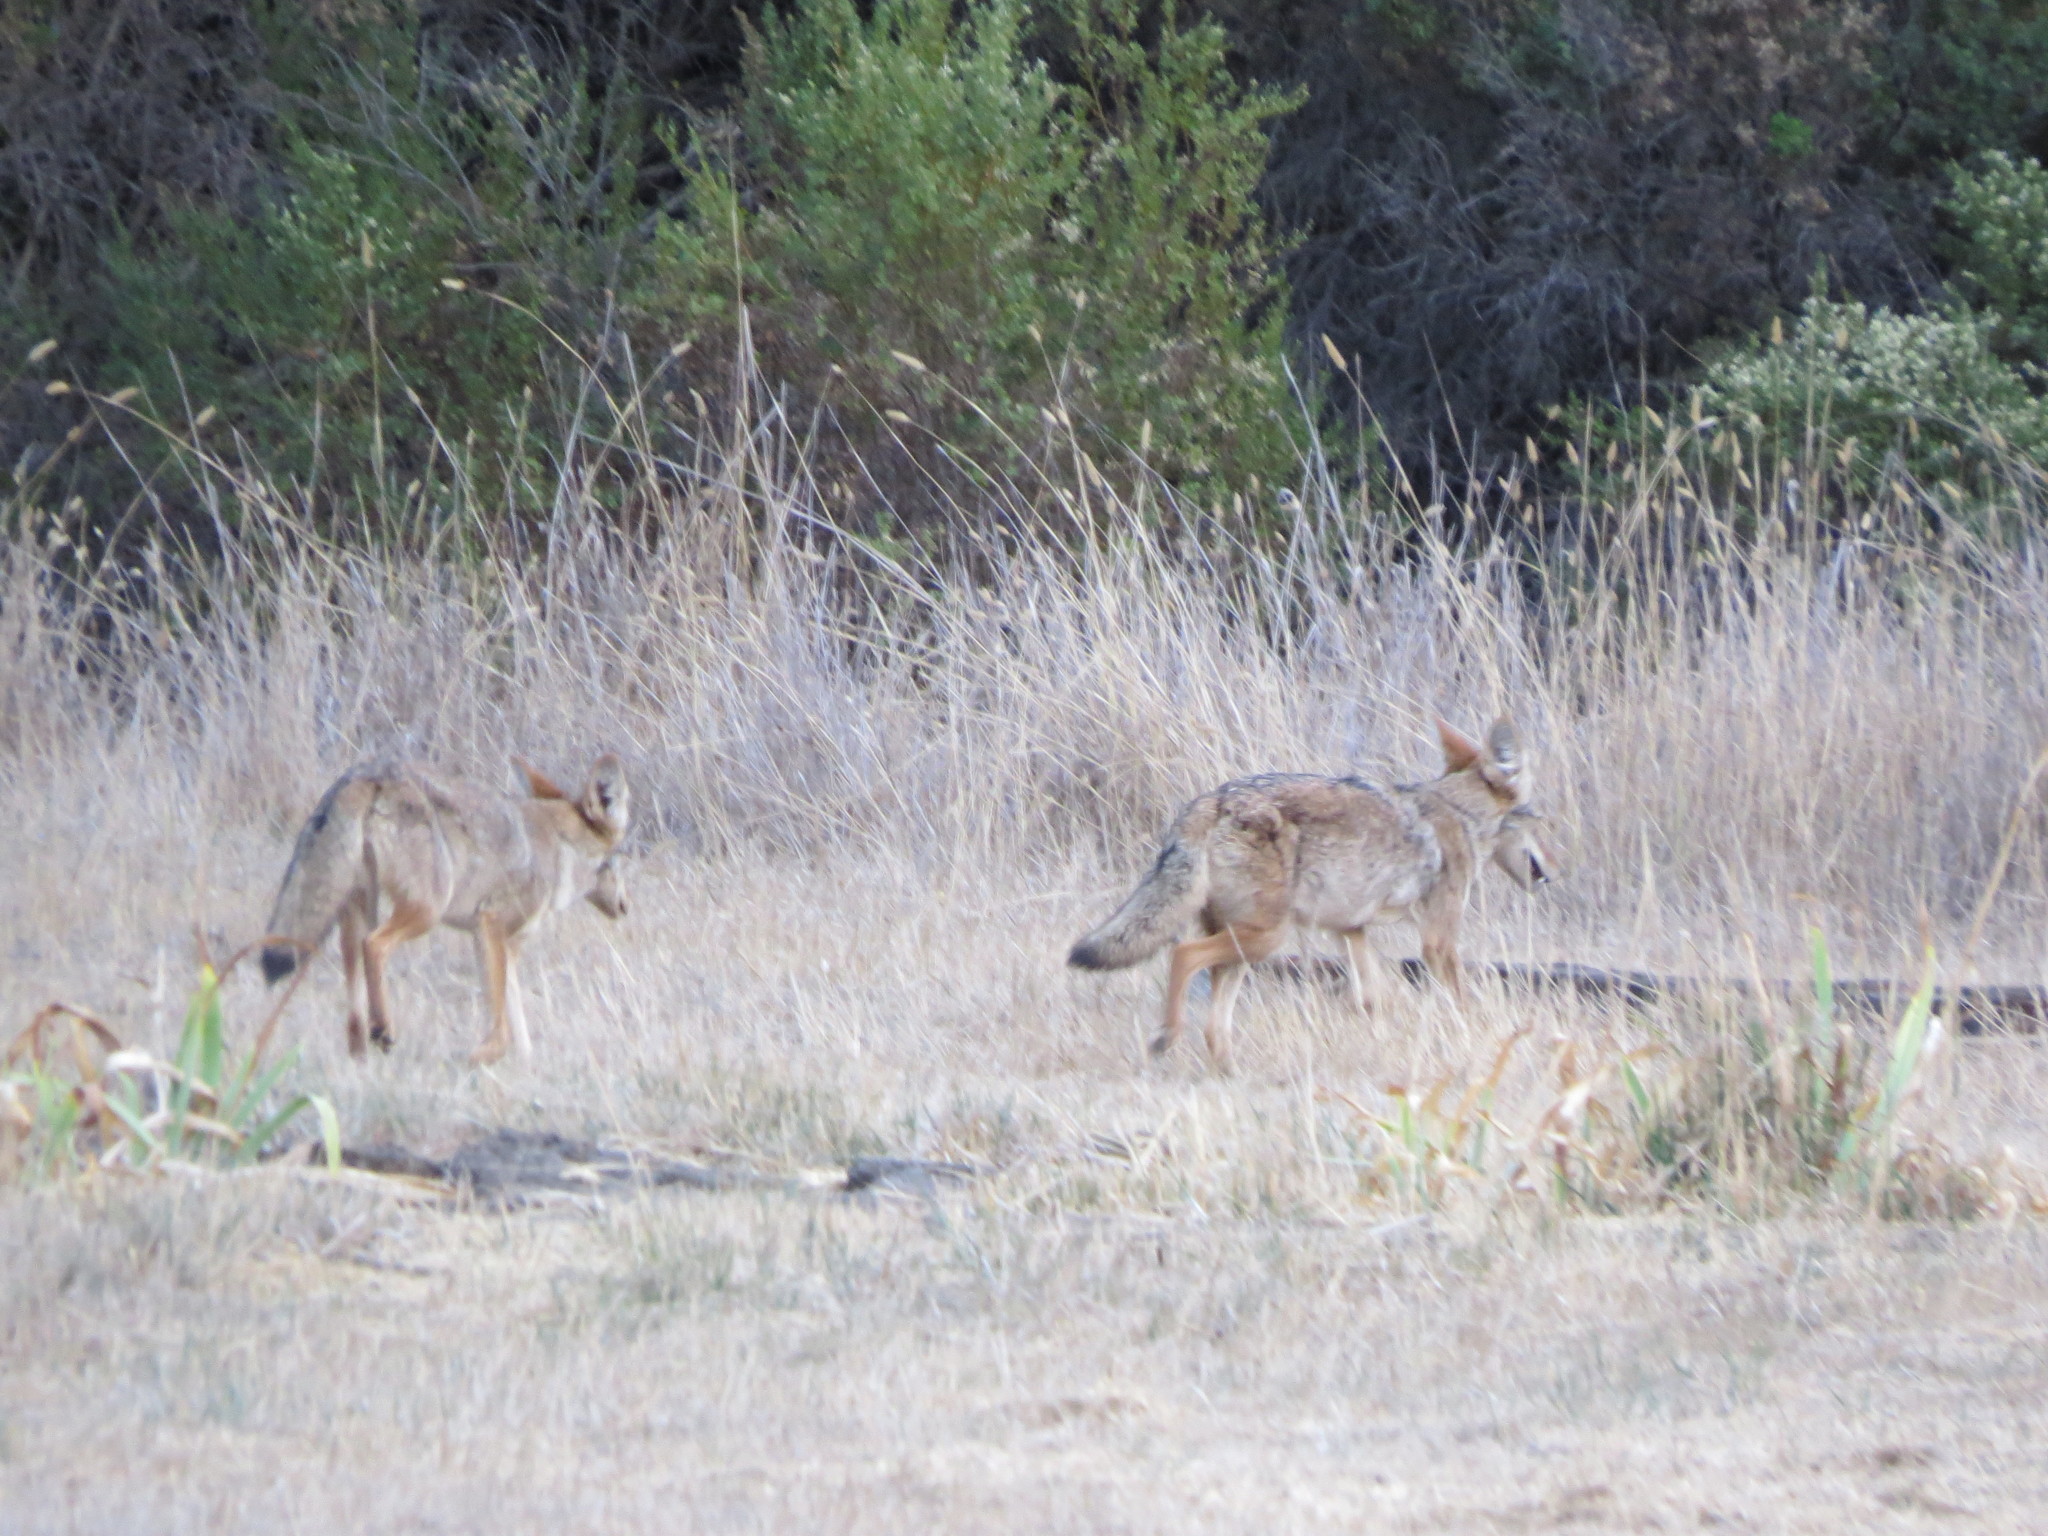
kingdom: Animalia
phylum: Chordata
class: Mammalia
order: Carnivora
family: Canidae
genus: Canis
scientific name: Canis latrans
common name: Coyote
